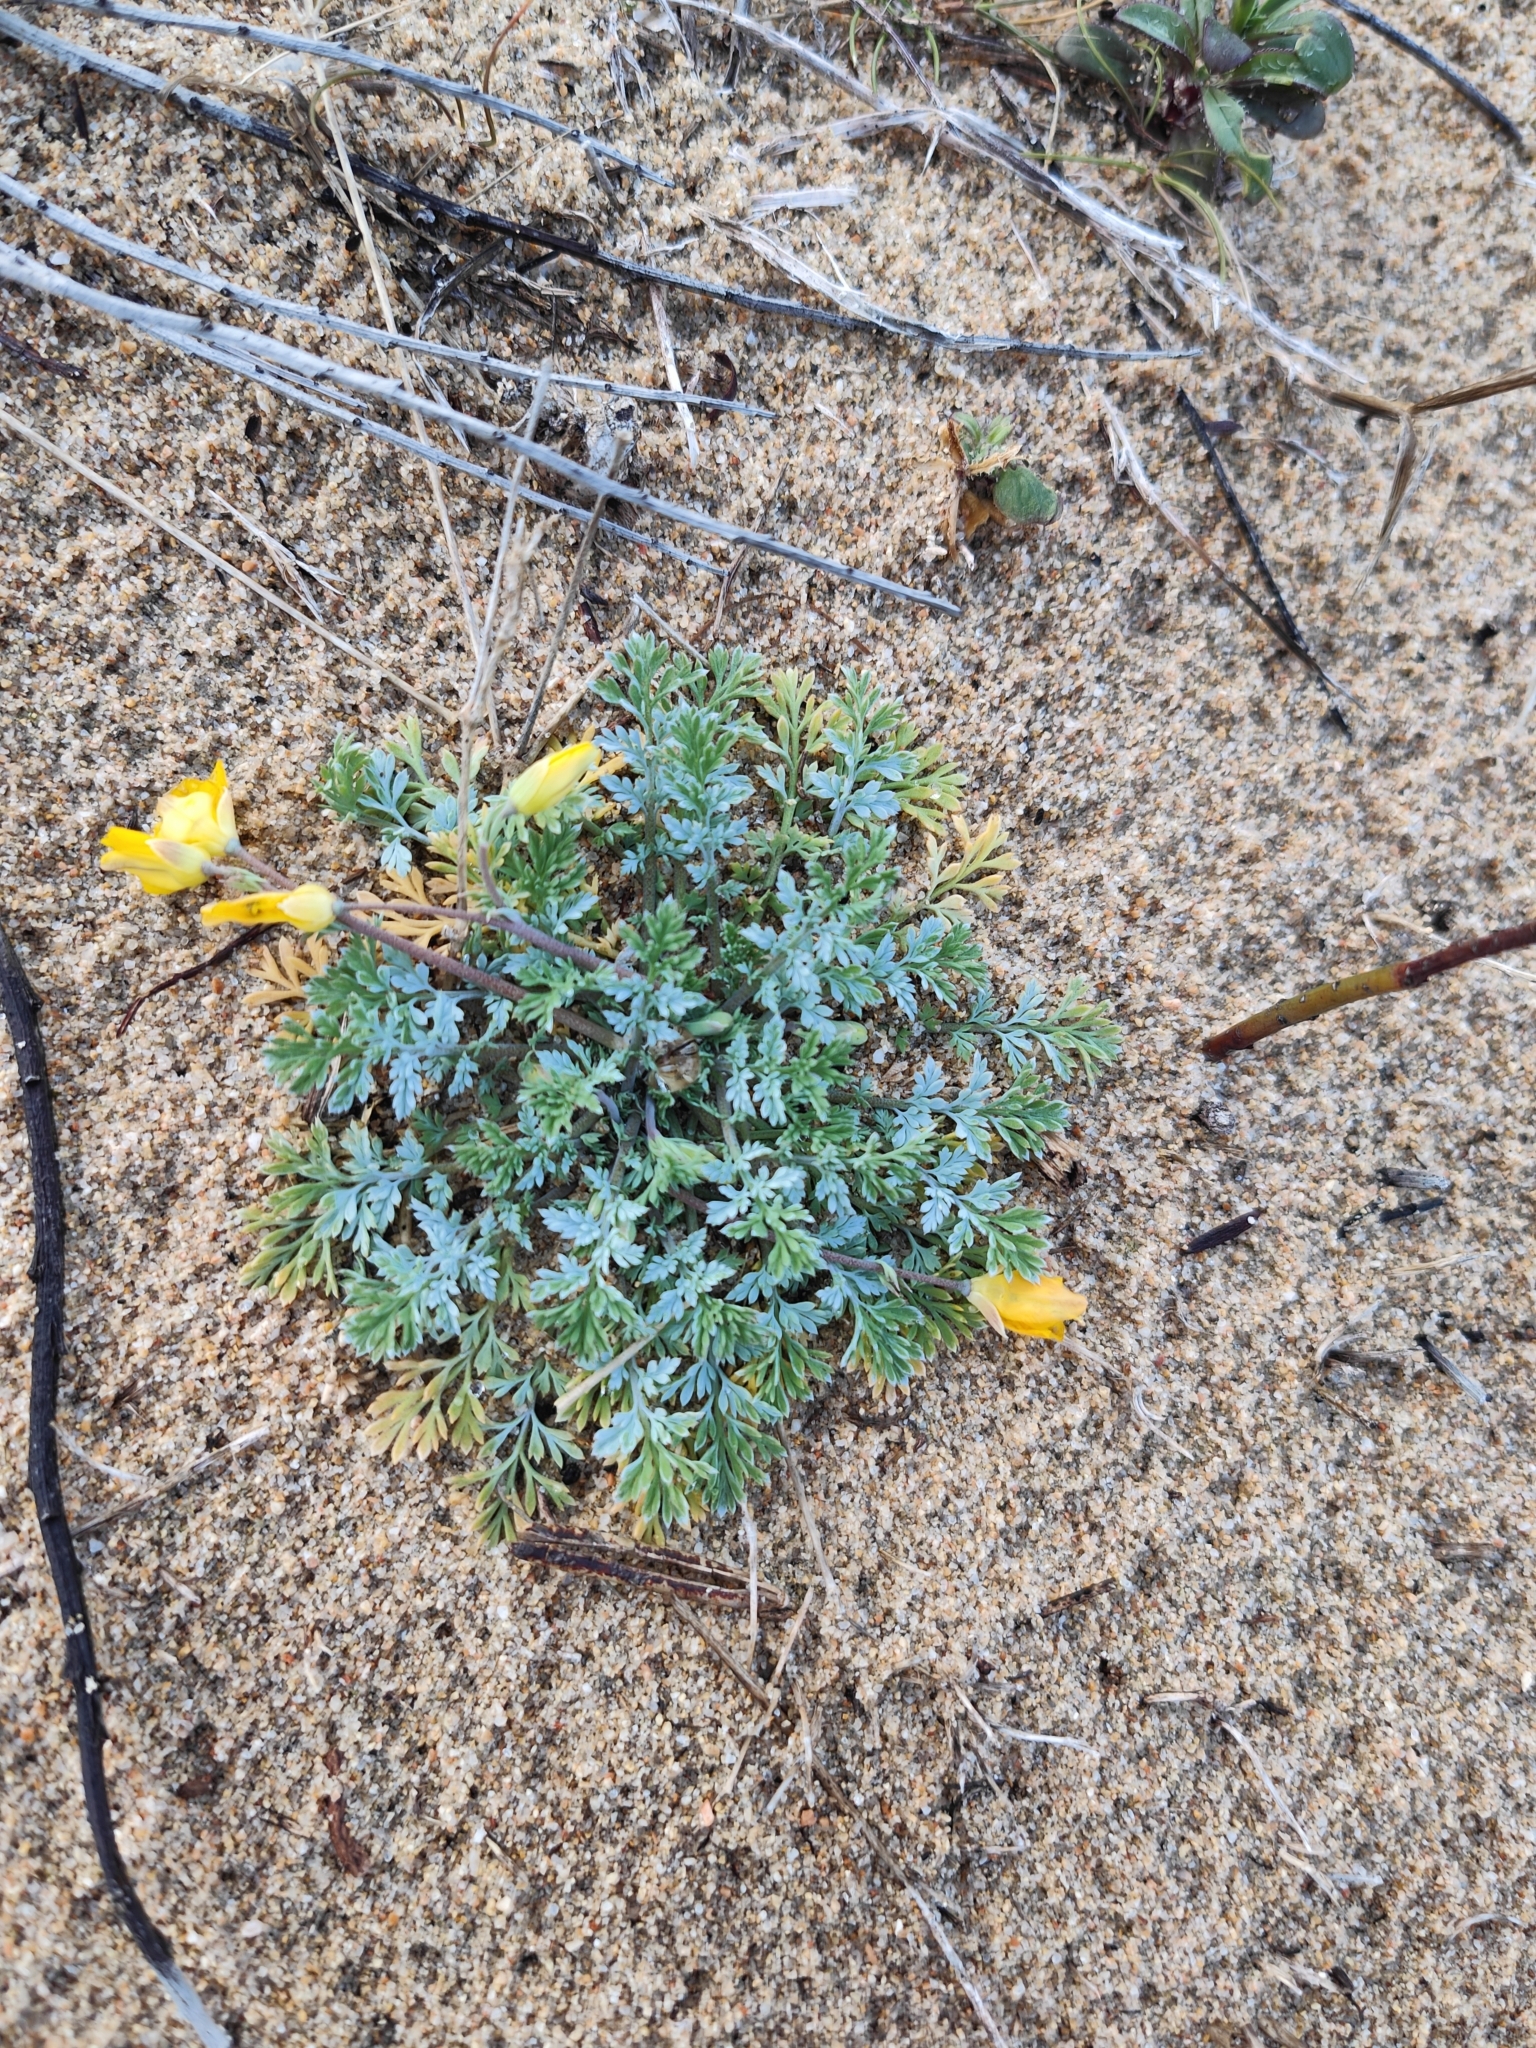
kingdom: Plantae
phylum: Tracheophyta
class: Magnoliopsida
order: Ranunculales
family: Papaveraceae
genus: Hypecoum
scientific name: Hypecoum procumbens
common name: Procumbent hypecoum
